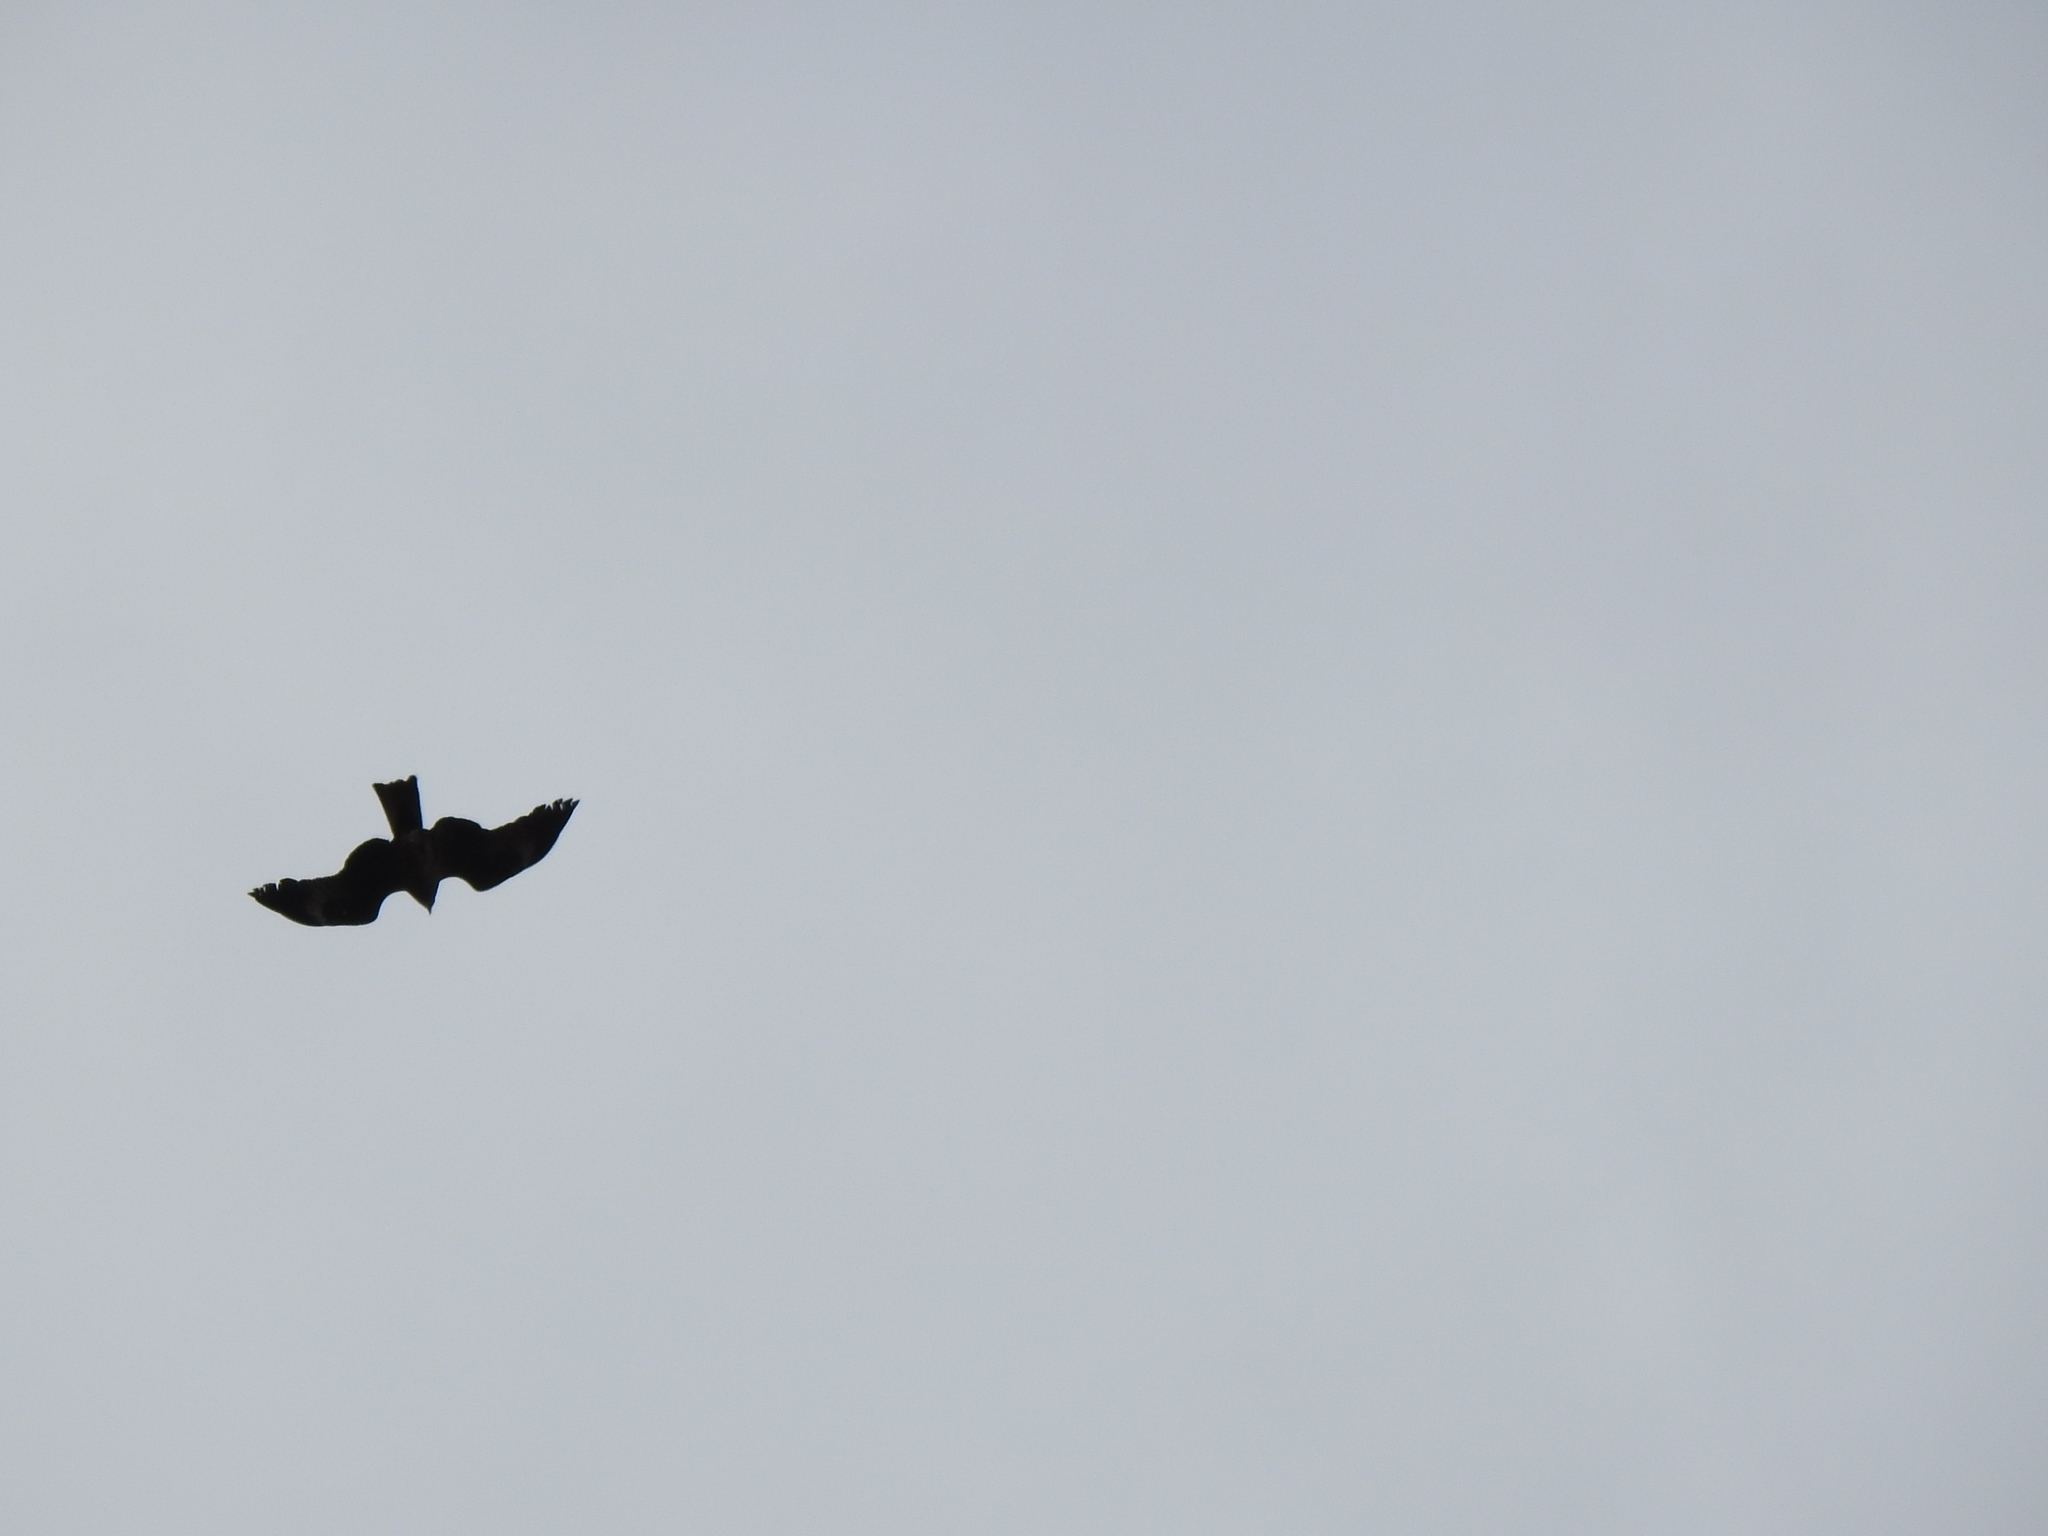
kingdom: Animalia
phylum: Chordata
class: Aves
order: Accipitriformes
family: Accipitridae
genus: Milvus
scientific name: Milvus migrans
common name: Black kite
